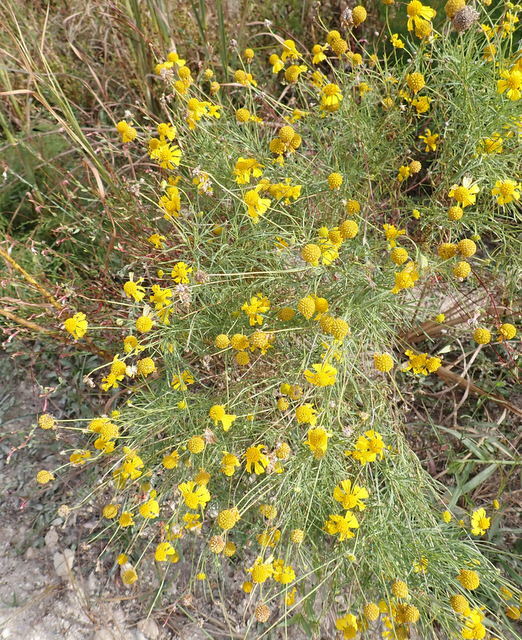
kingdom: Plantae
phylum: Tracheophyta
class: Magnoliopsida
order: Asterales
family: Asteraceae
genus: Helenium
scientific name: Helenium amarum
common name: Bitter sneezeweed
